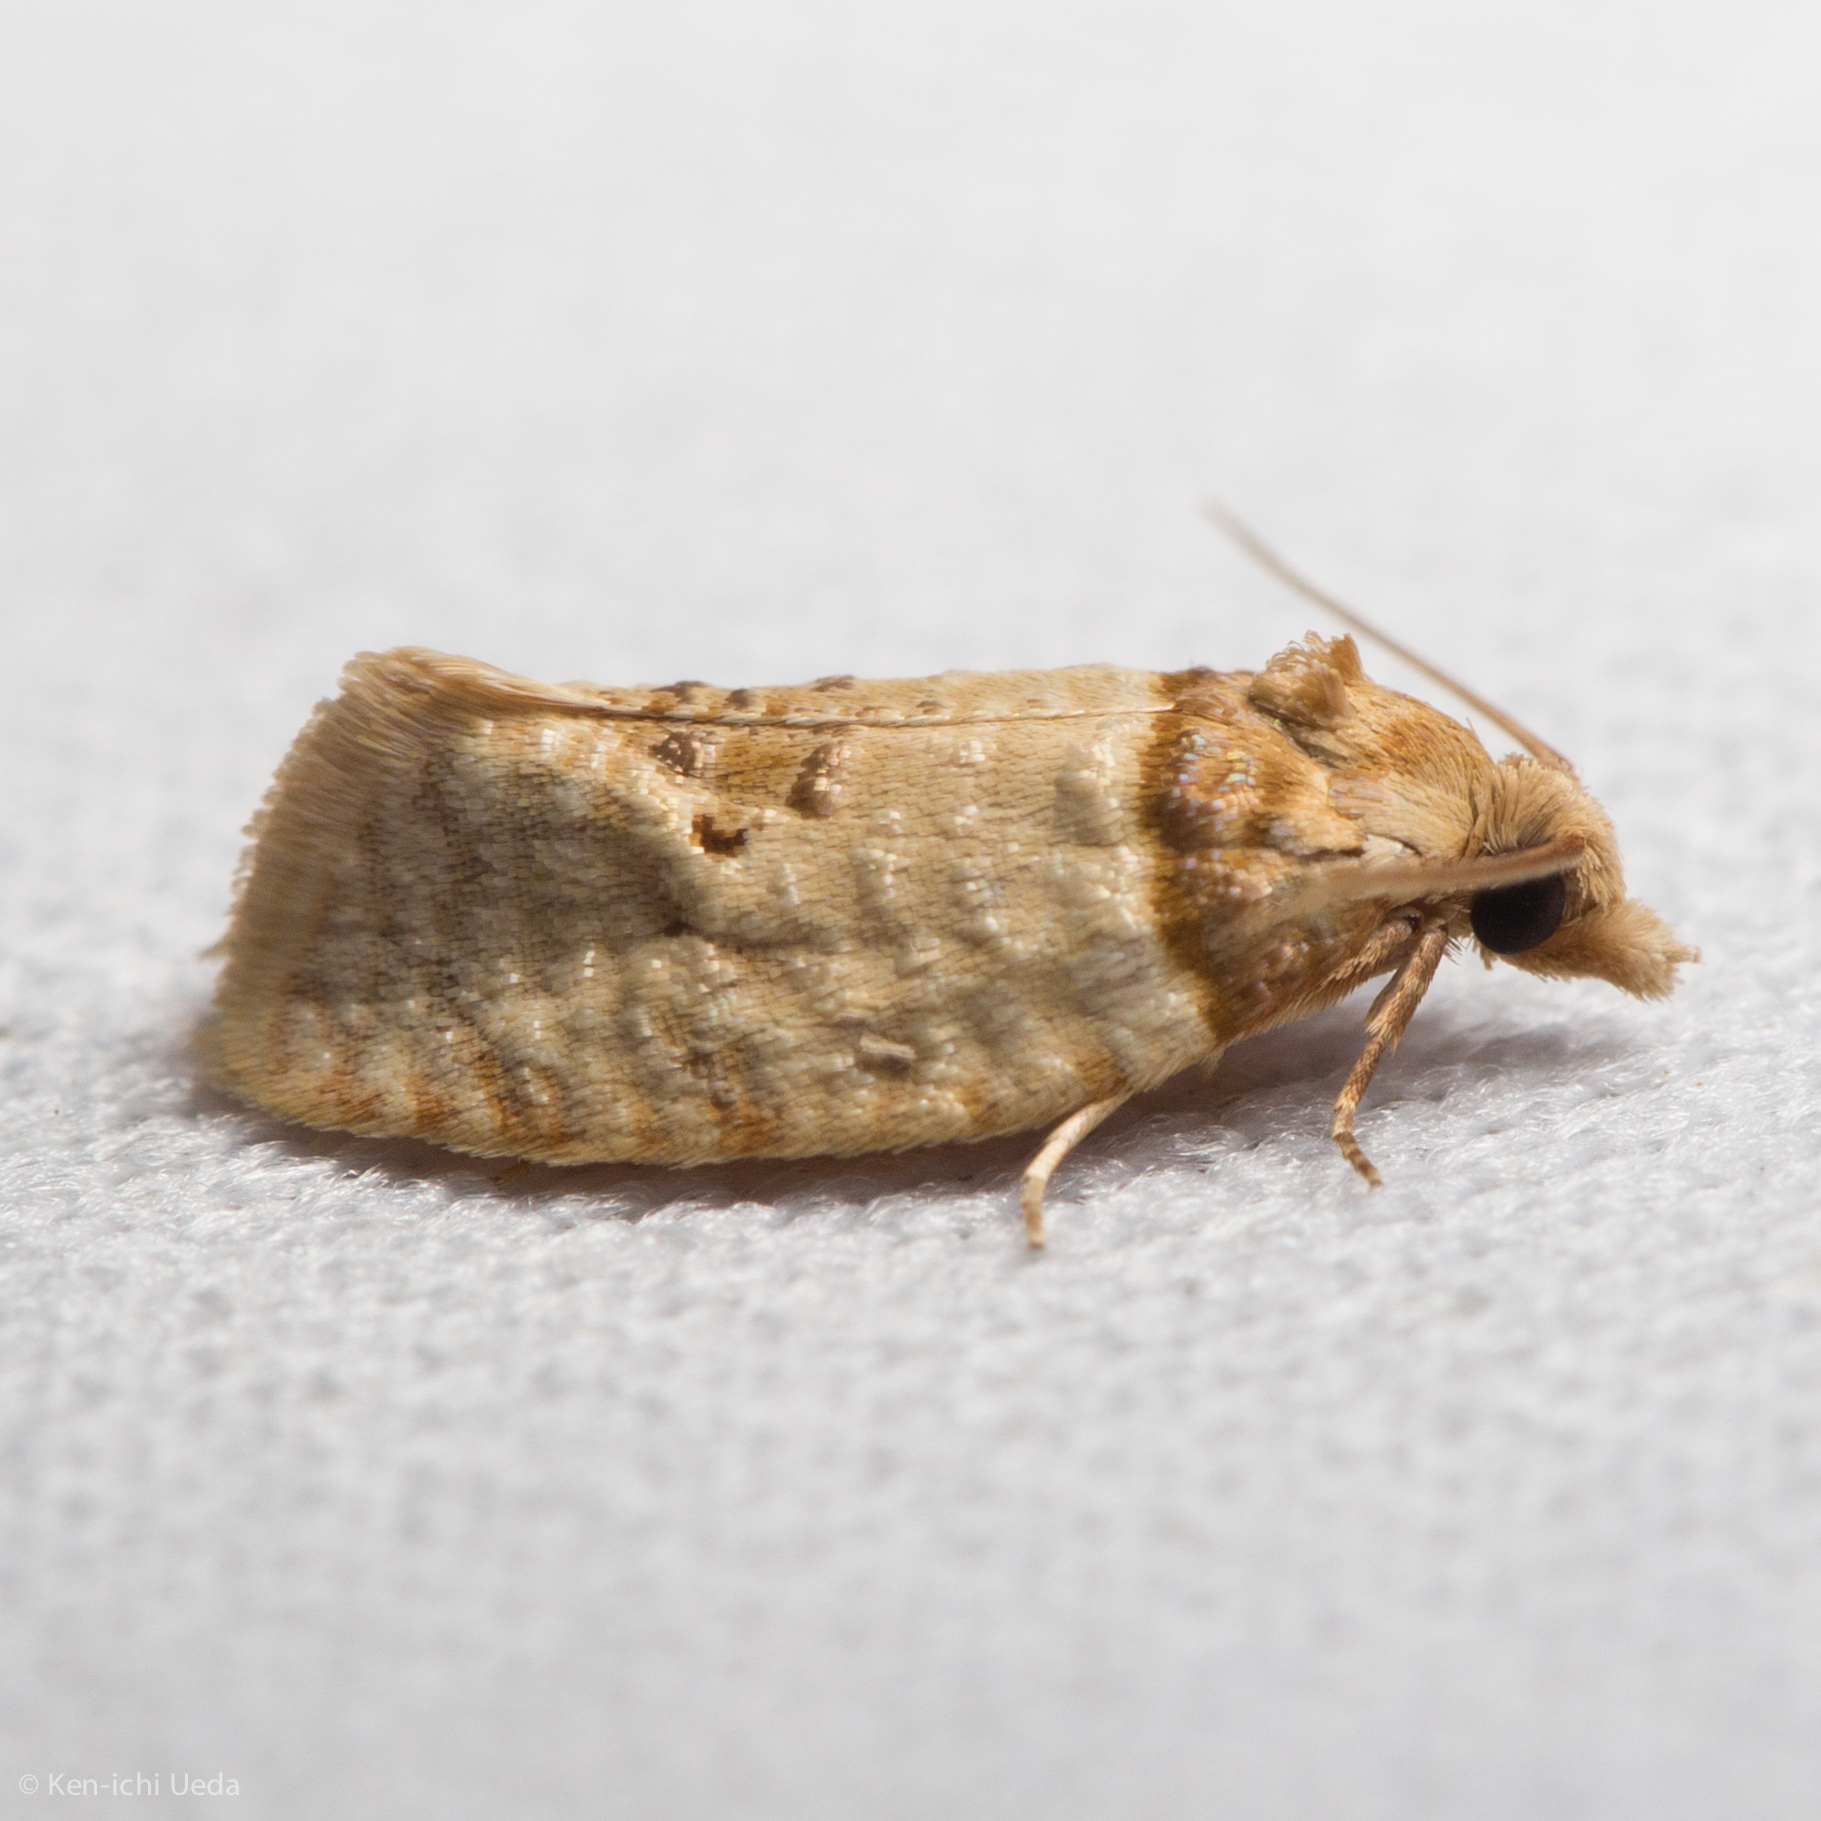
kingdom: Animalia
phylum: Arthropoda
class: Insecta
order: Lepidoptera
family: Tortricidae
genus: Henricus
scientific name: Henricus umbrabasana
